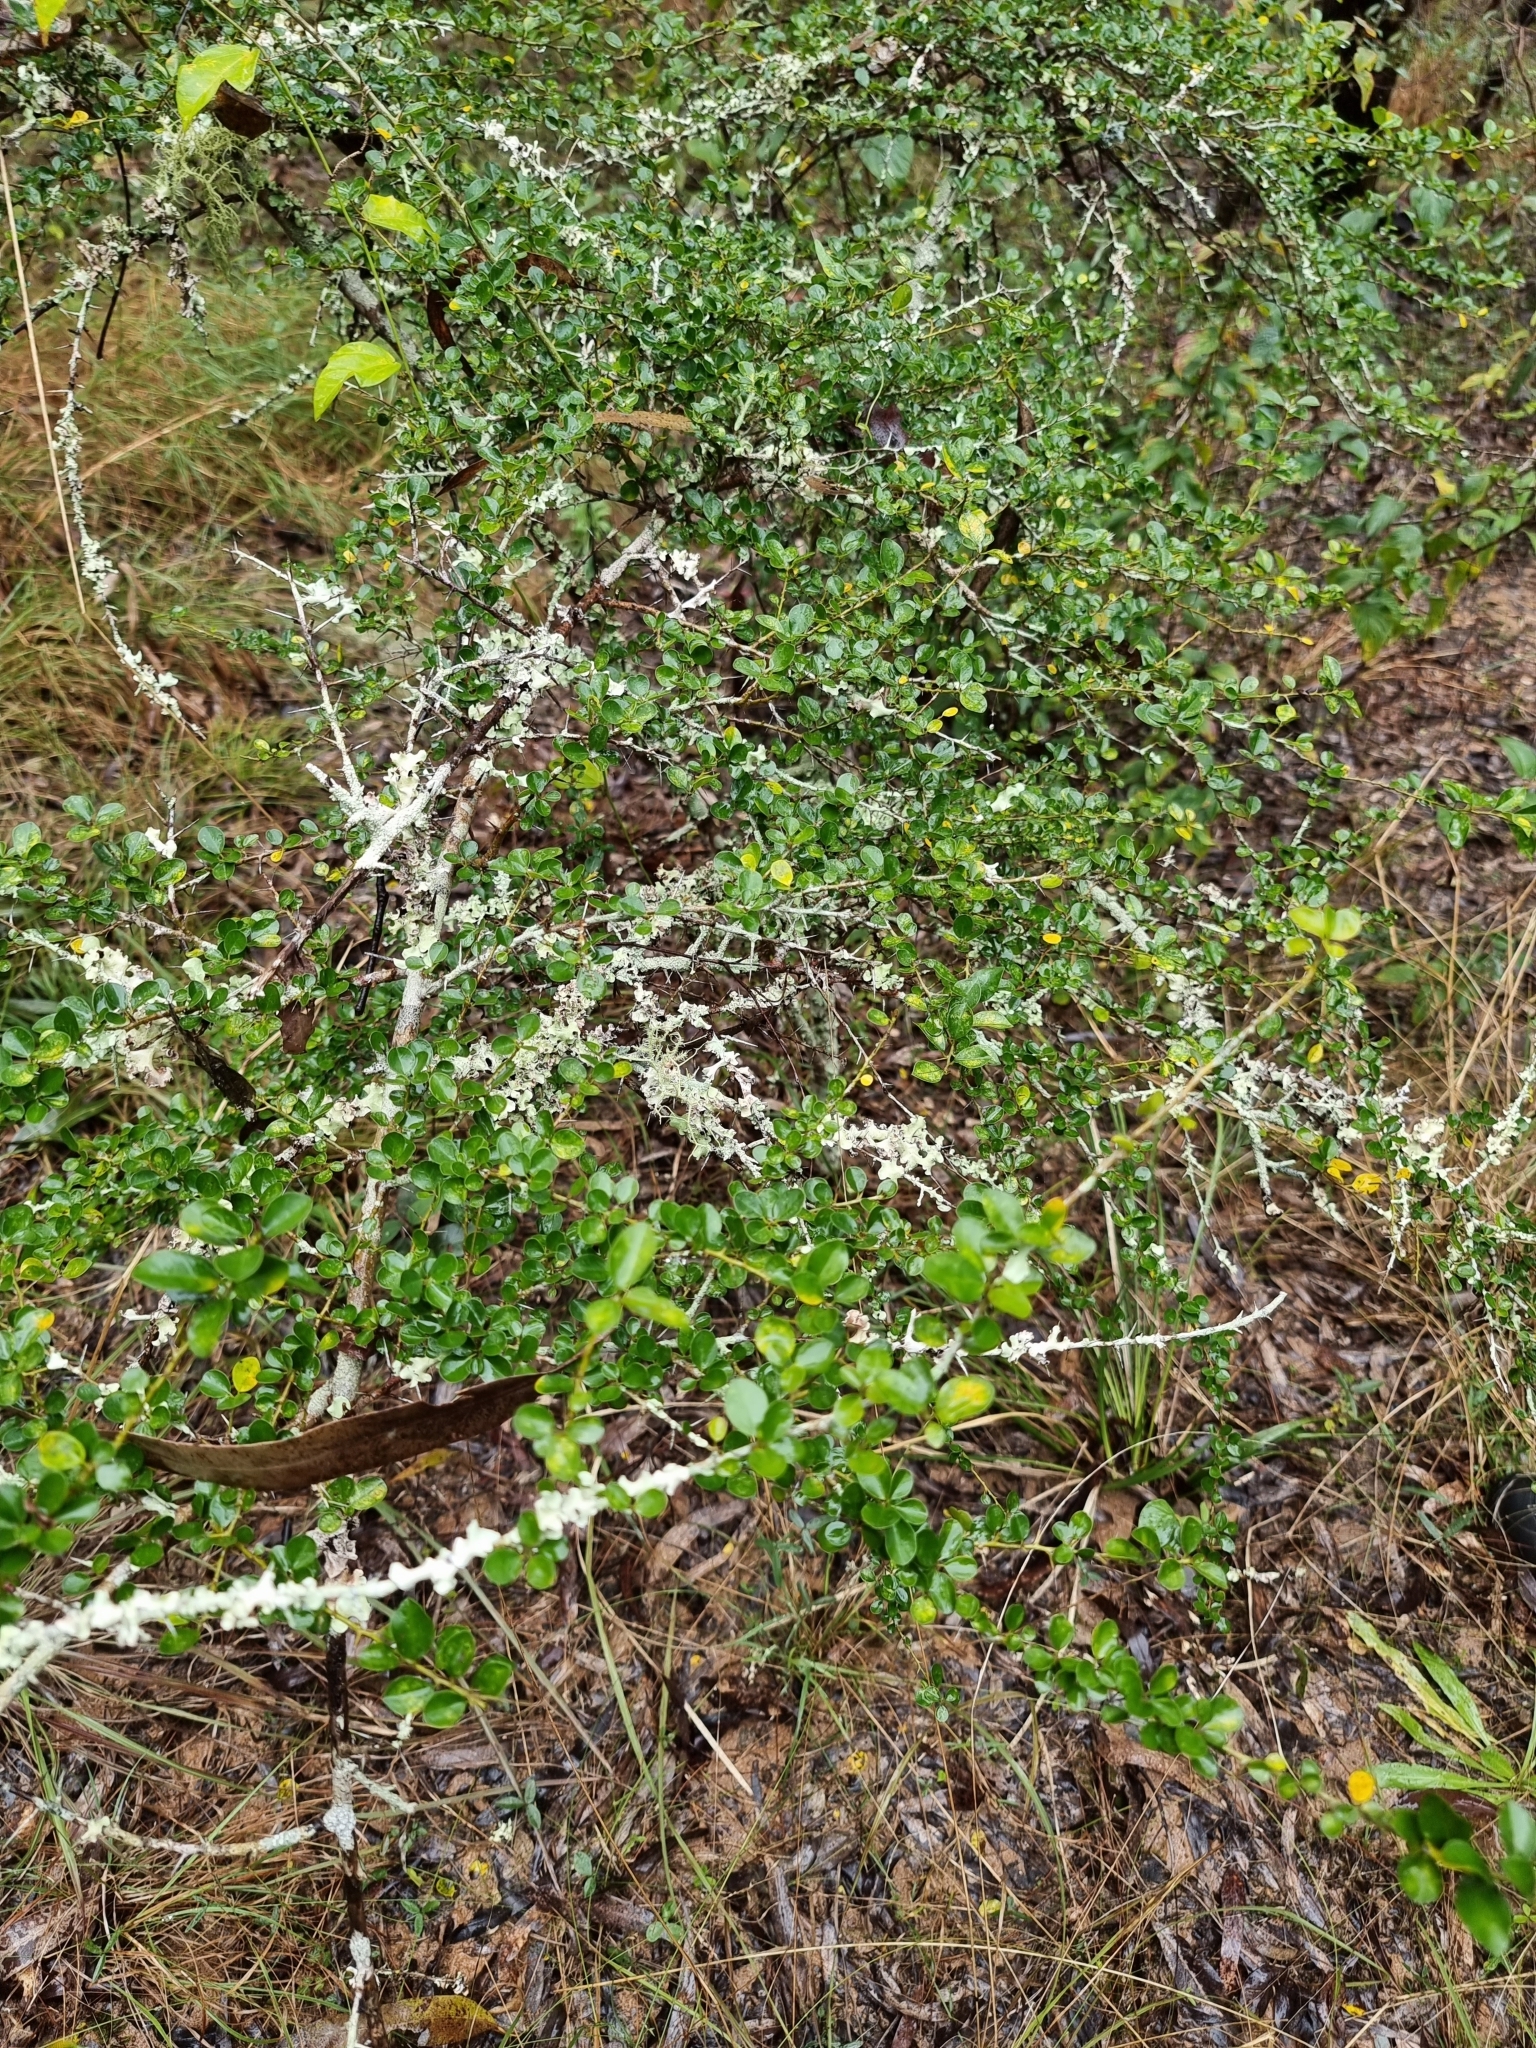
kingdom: Plantae
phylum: Tracheophyta
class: Magnoliopsida
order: Rosales
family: Moraceae
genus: Maclura
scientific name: Maclura cochinchinensis
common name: Cockspurthorn
